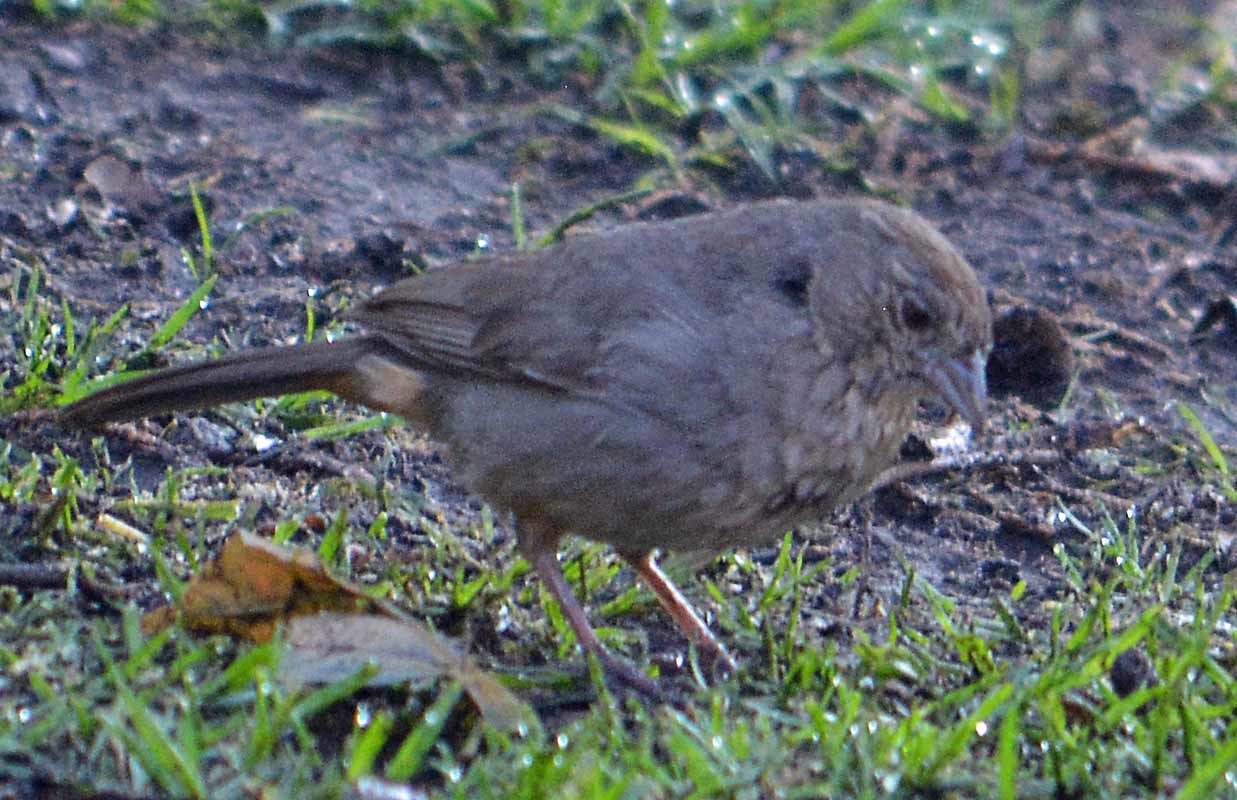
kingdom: Animalia
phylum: Chordata
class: Aves
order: Passeriformes
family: Passerellidae
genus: Melozone
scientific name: Melozone fusca
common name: Canyon towhee
